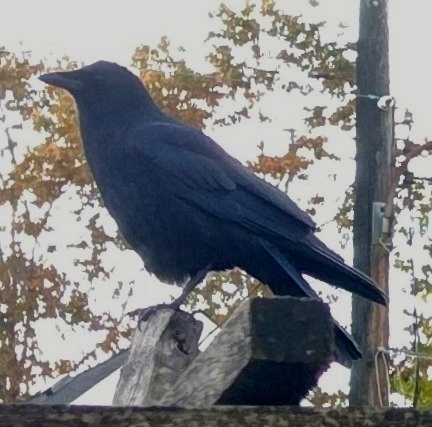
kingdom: Animalia
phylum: Chordata
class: Aves
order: Passeriformes
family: Corvidae
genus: Corvus
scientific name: Corvus brachyrhynchos
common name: American crow
